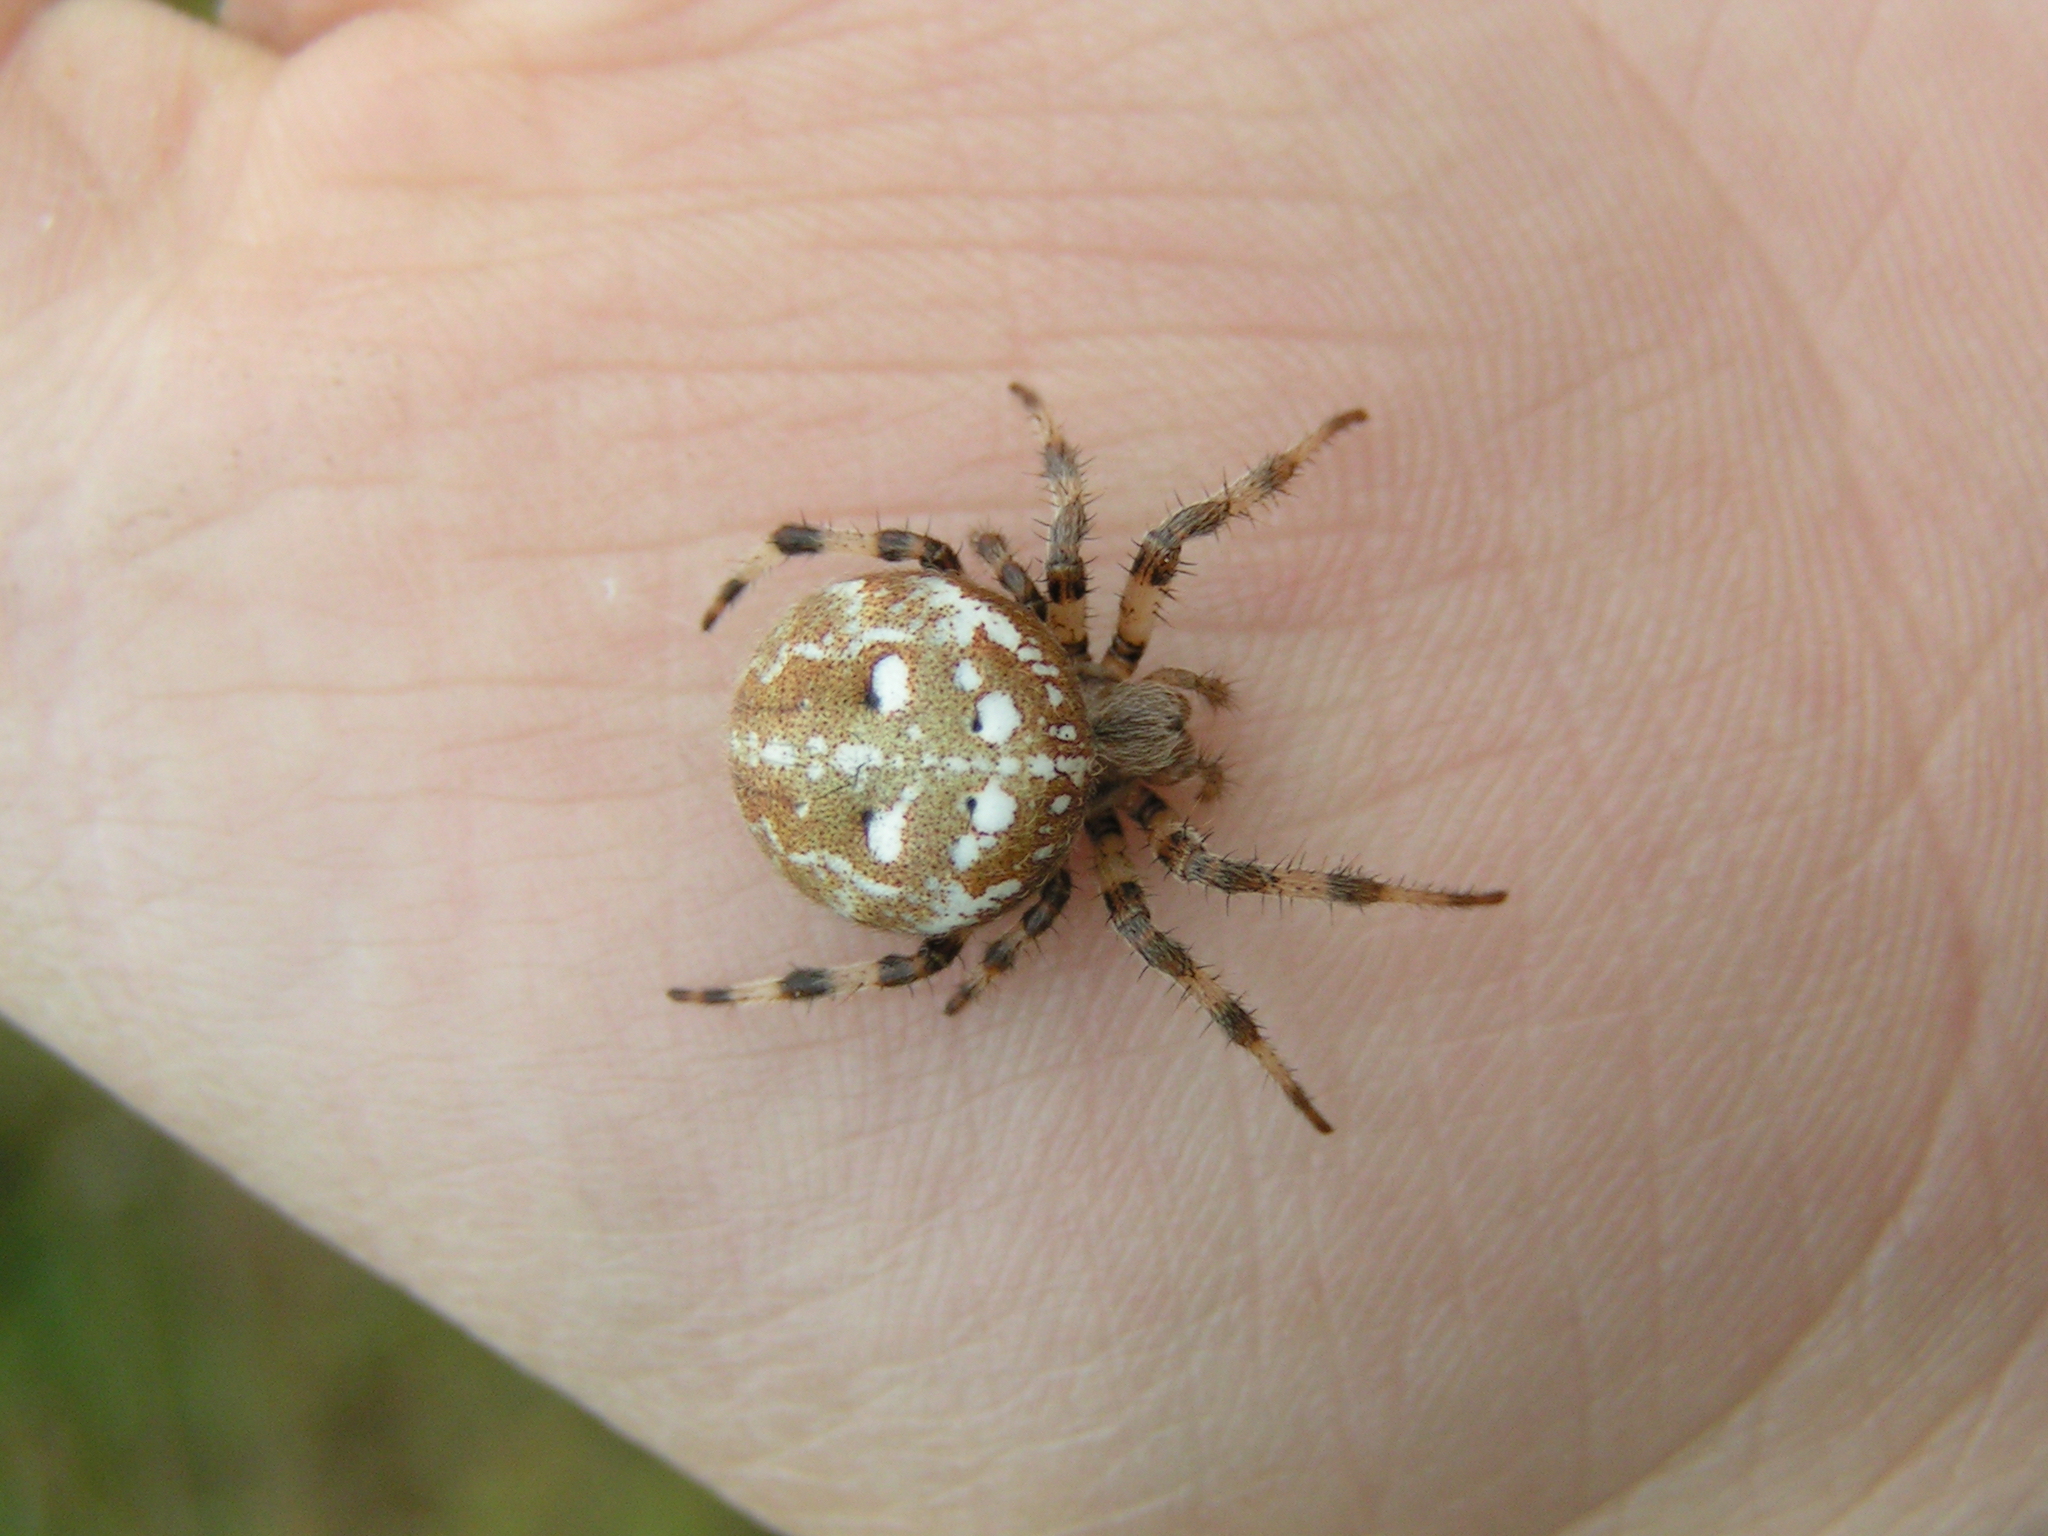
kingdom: Animalia
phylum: Arthropoda
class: Arachnida
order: Araneae
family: Araneidae
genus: Araneus
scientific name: Araneus quadratus
